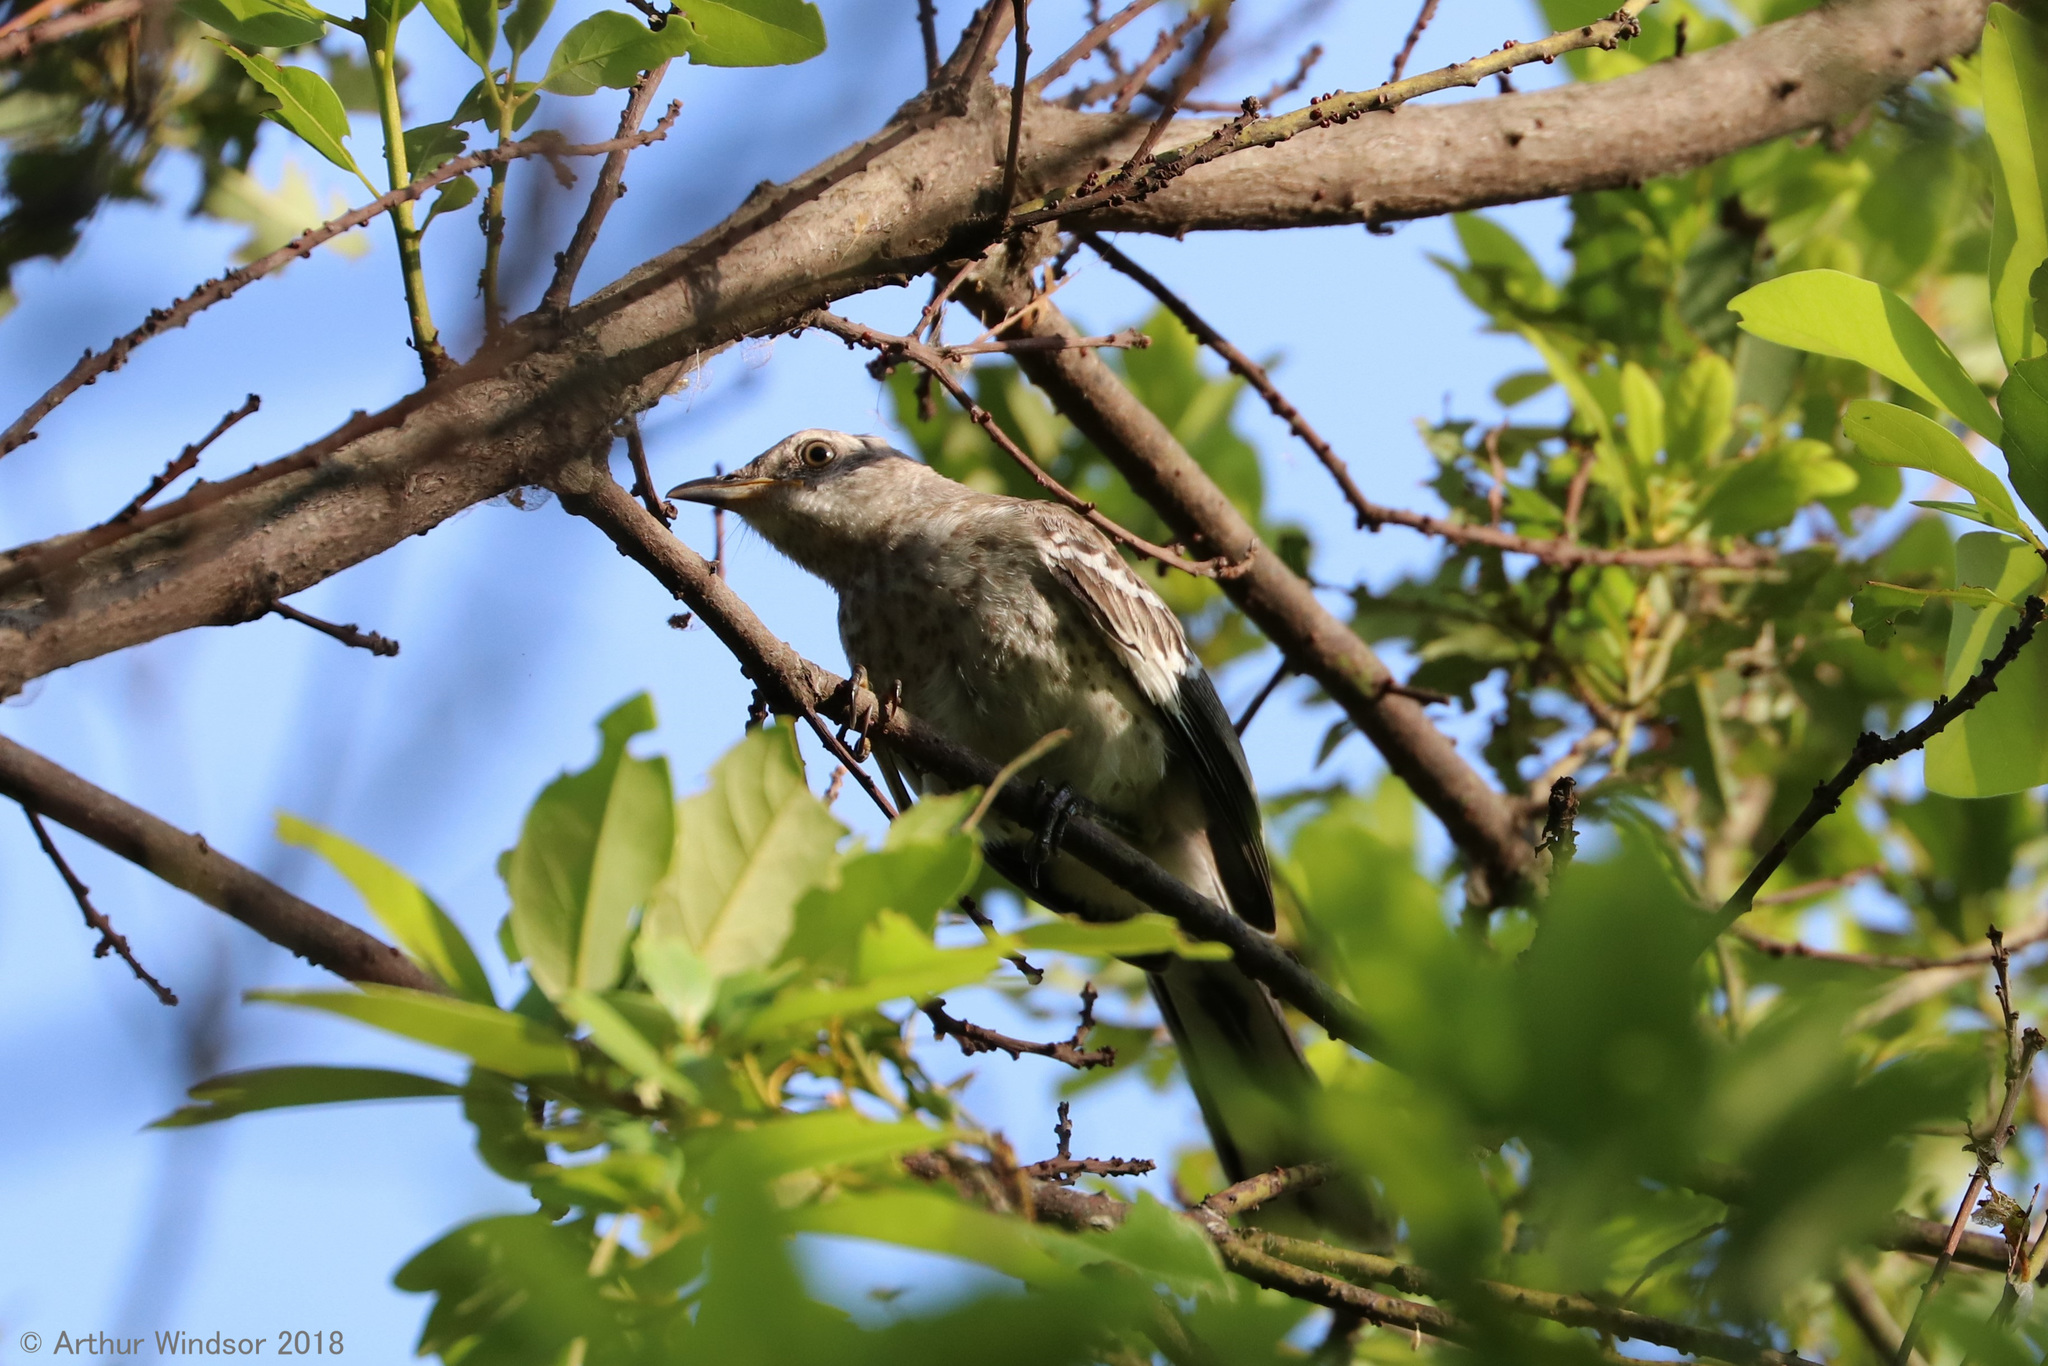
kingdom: Animalia
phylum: Chordata
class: Aves
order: Passeriformes
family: Mimidae
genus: Mimus
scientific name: Mimus polyglottos
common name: Northern mockingbird
